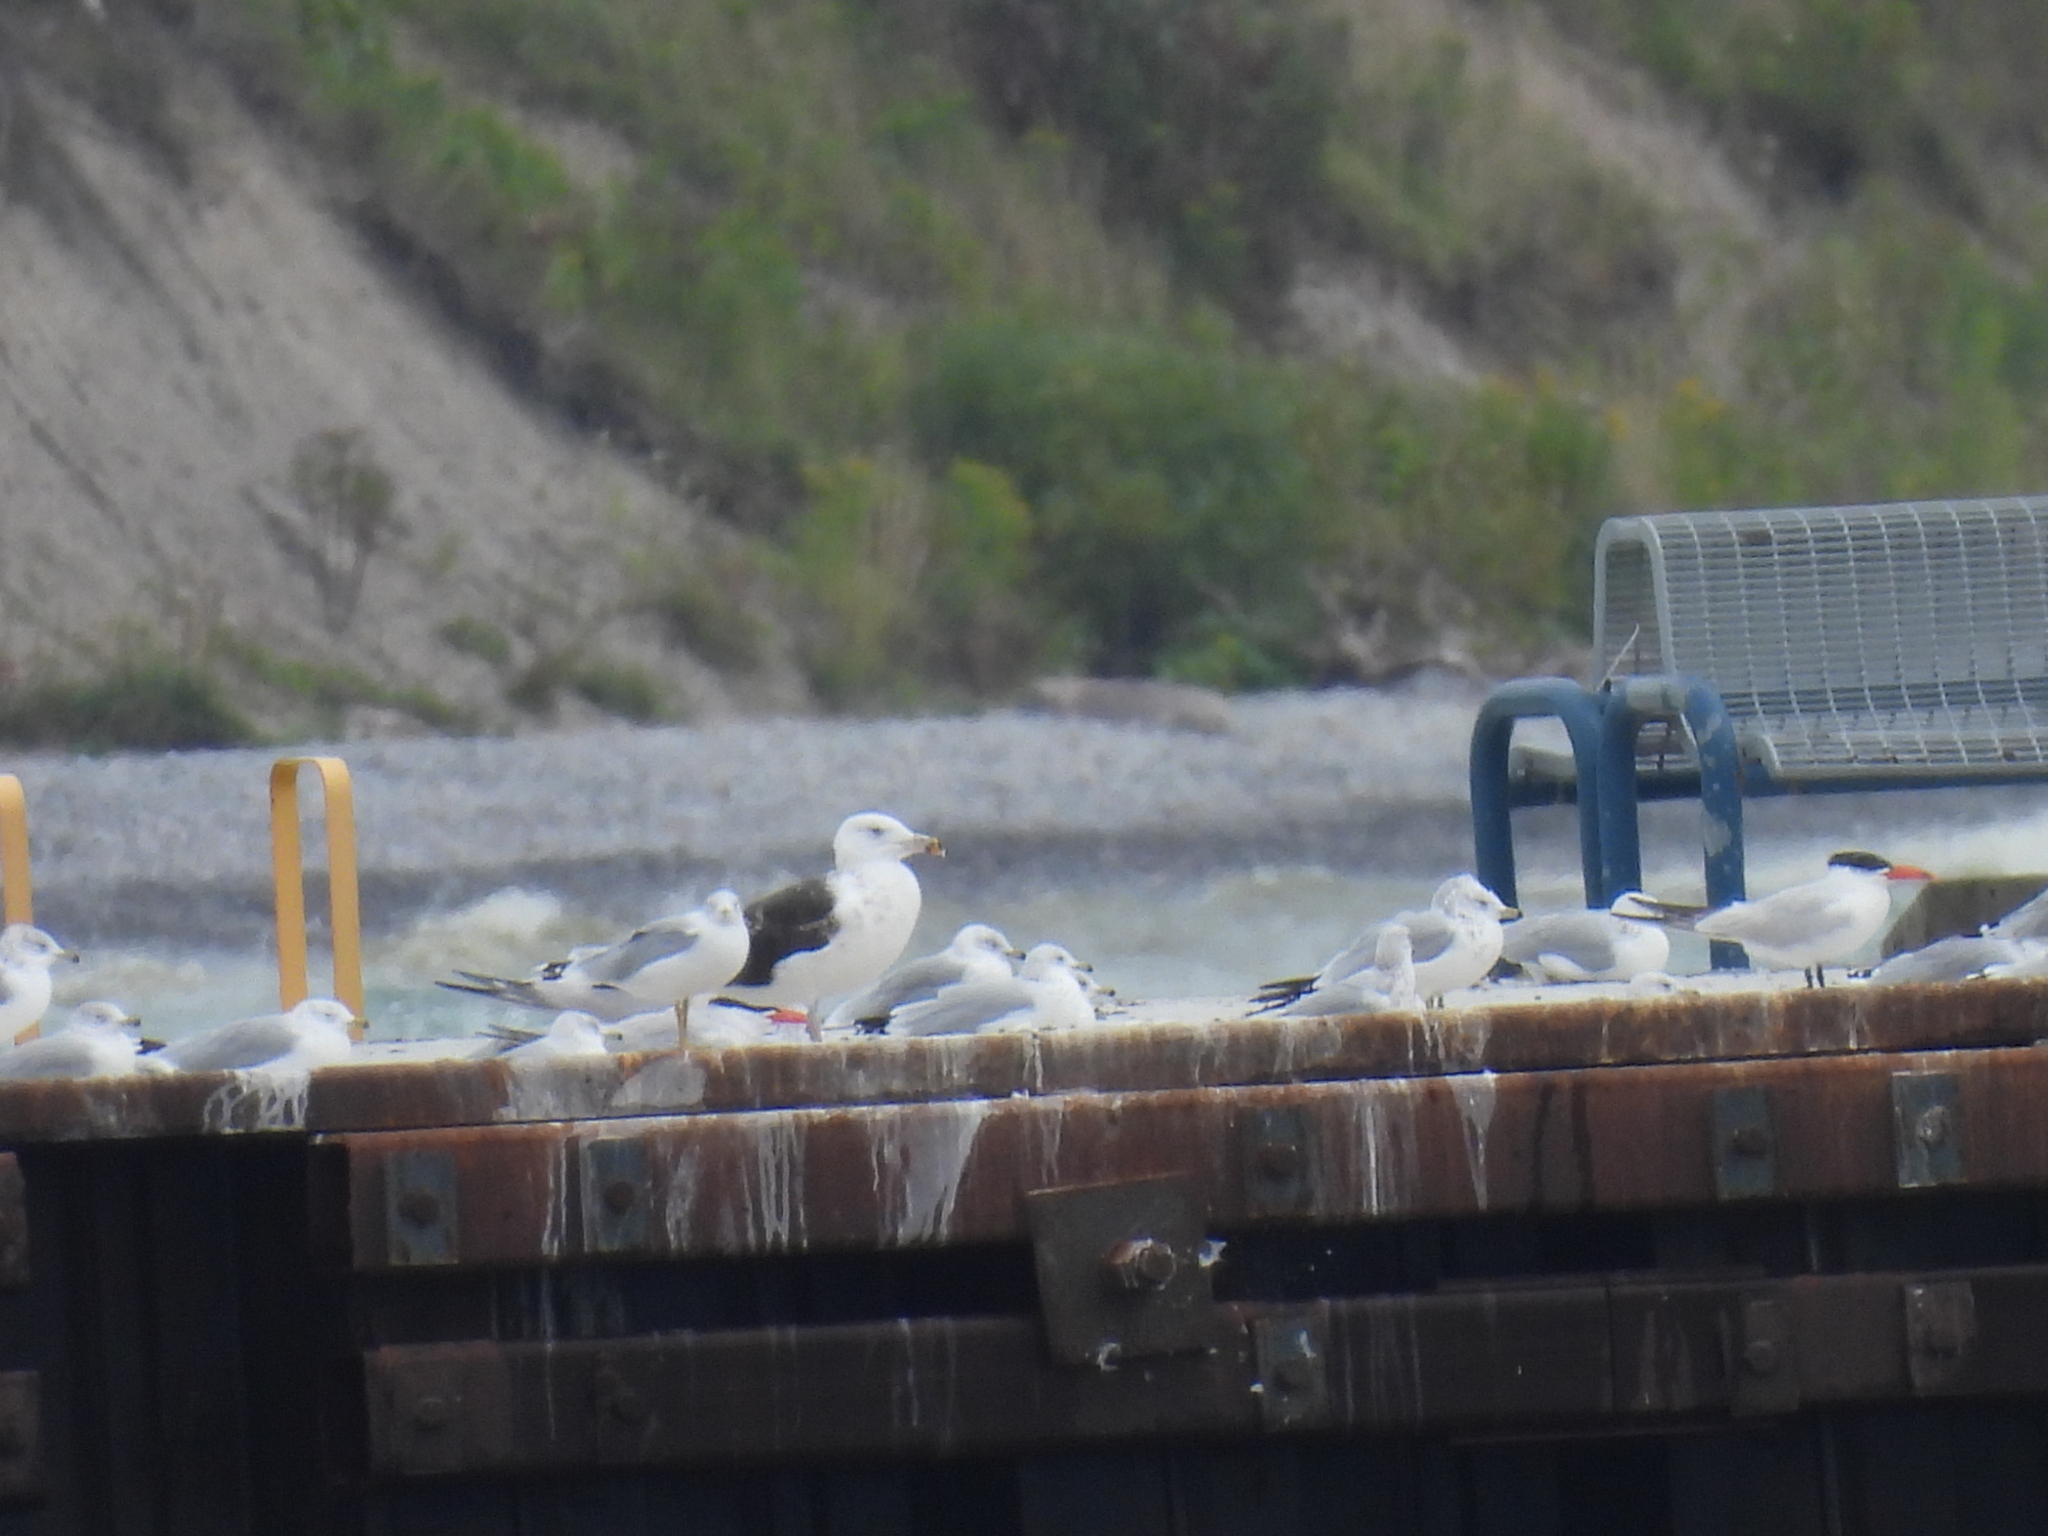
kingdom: Animalia
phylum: Chordata
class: Aves
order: Charadriiformes
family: Laridae
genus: Larus
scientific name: Larus marinus
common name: Great black-backed gull
